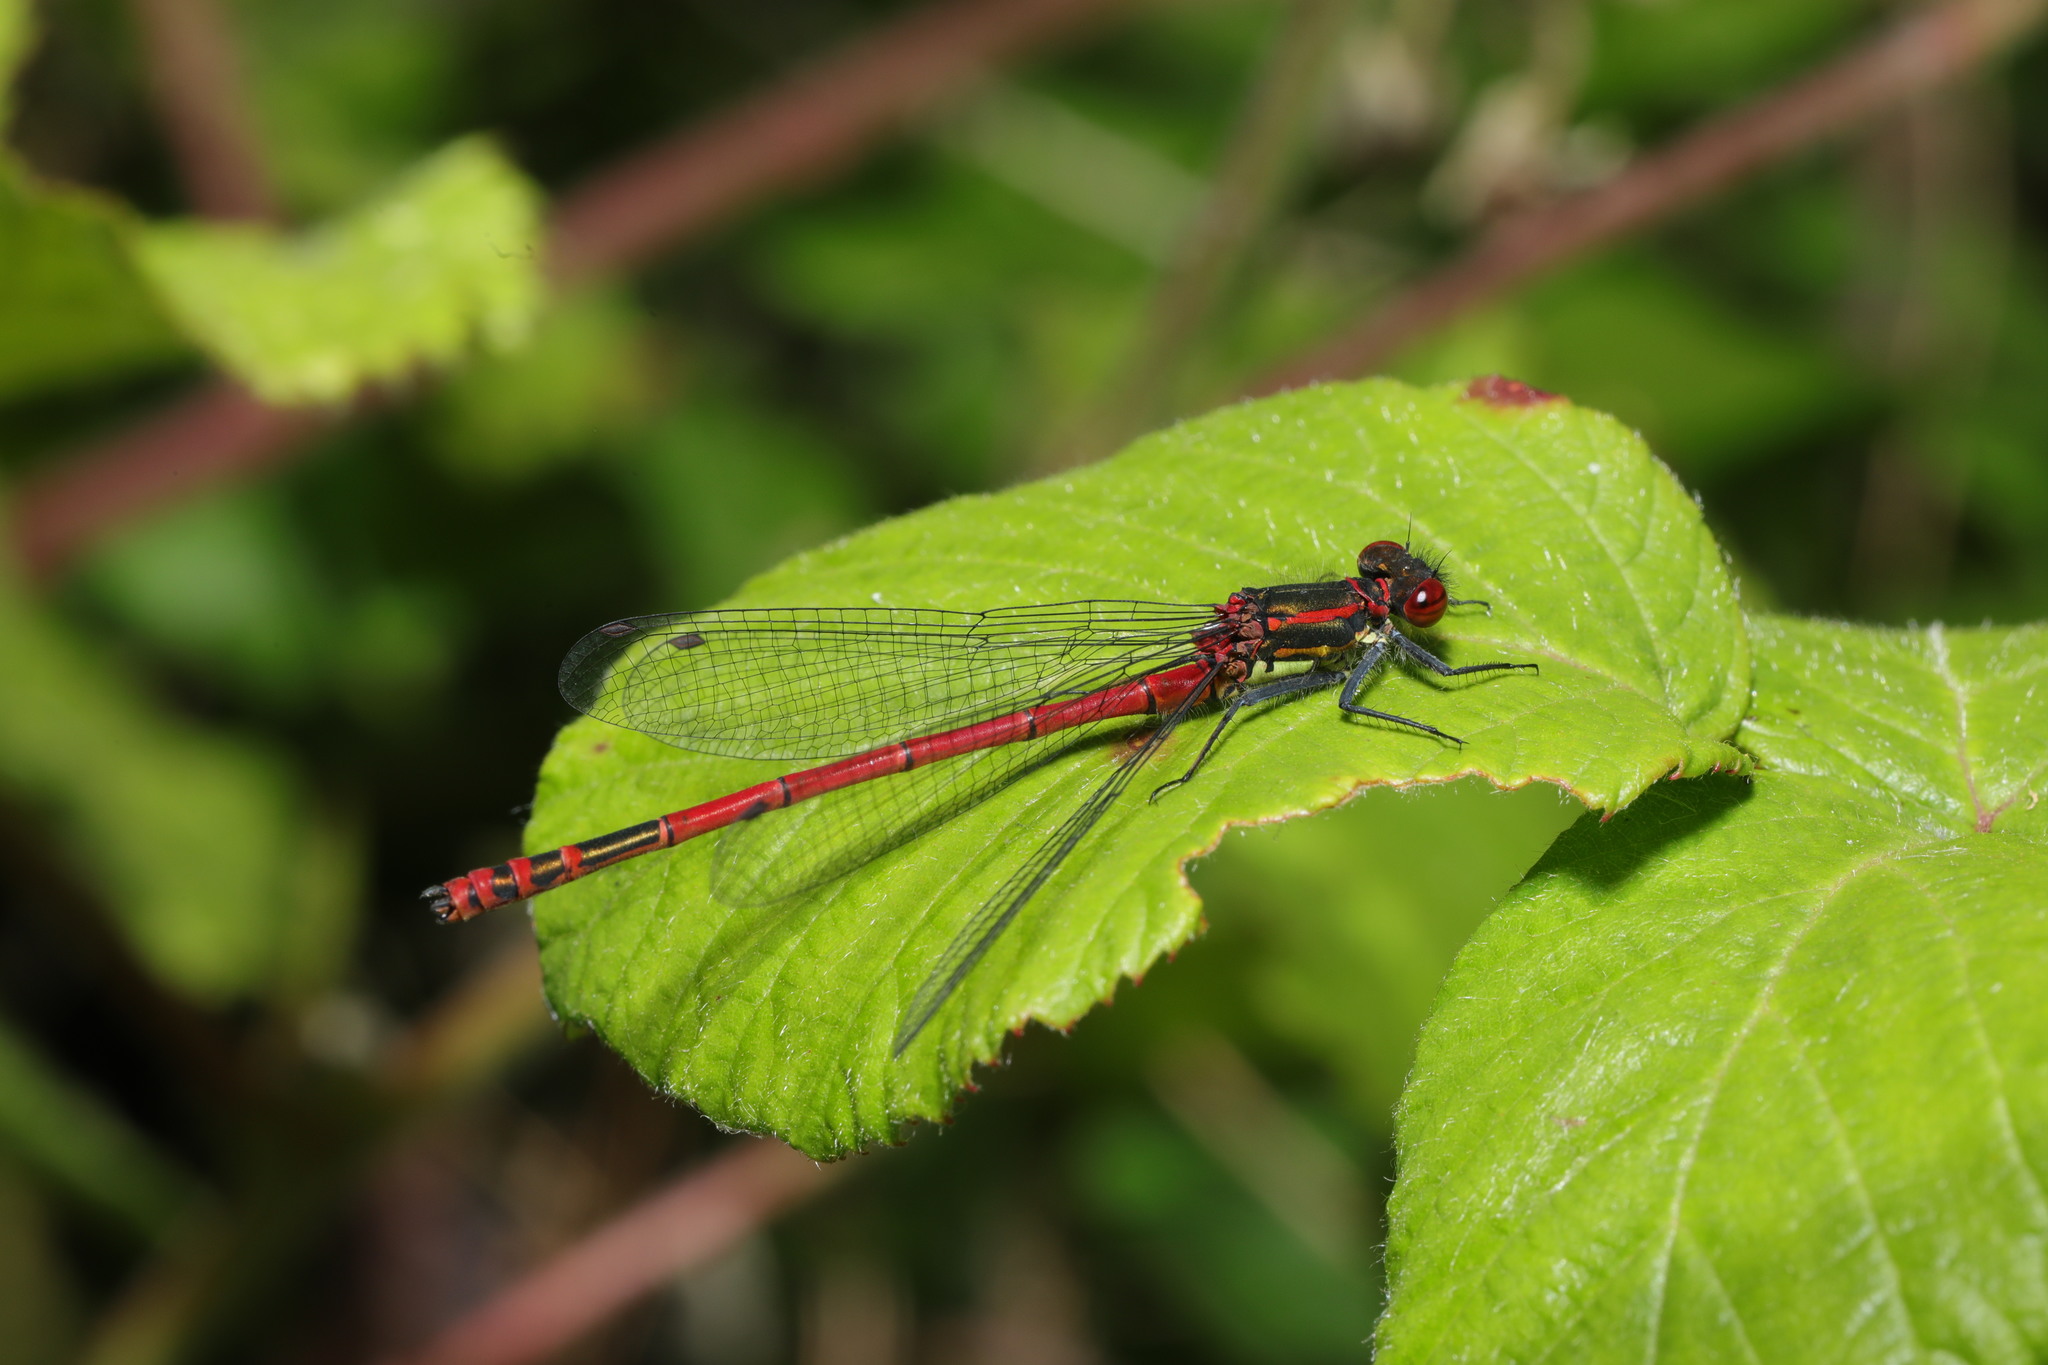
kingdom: Animalia
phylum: Arthropoda
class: Insecta
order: Odonata
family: Coenagrionidae
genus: Pyrrhosoma
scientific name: Pyrrhosoma nymphula
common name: Large red damsel
